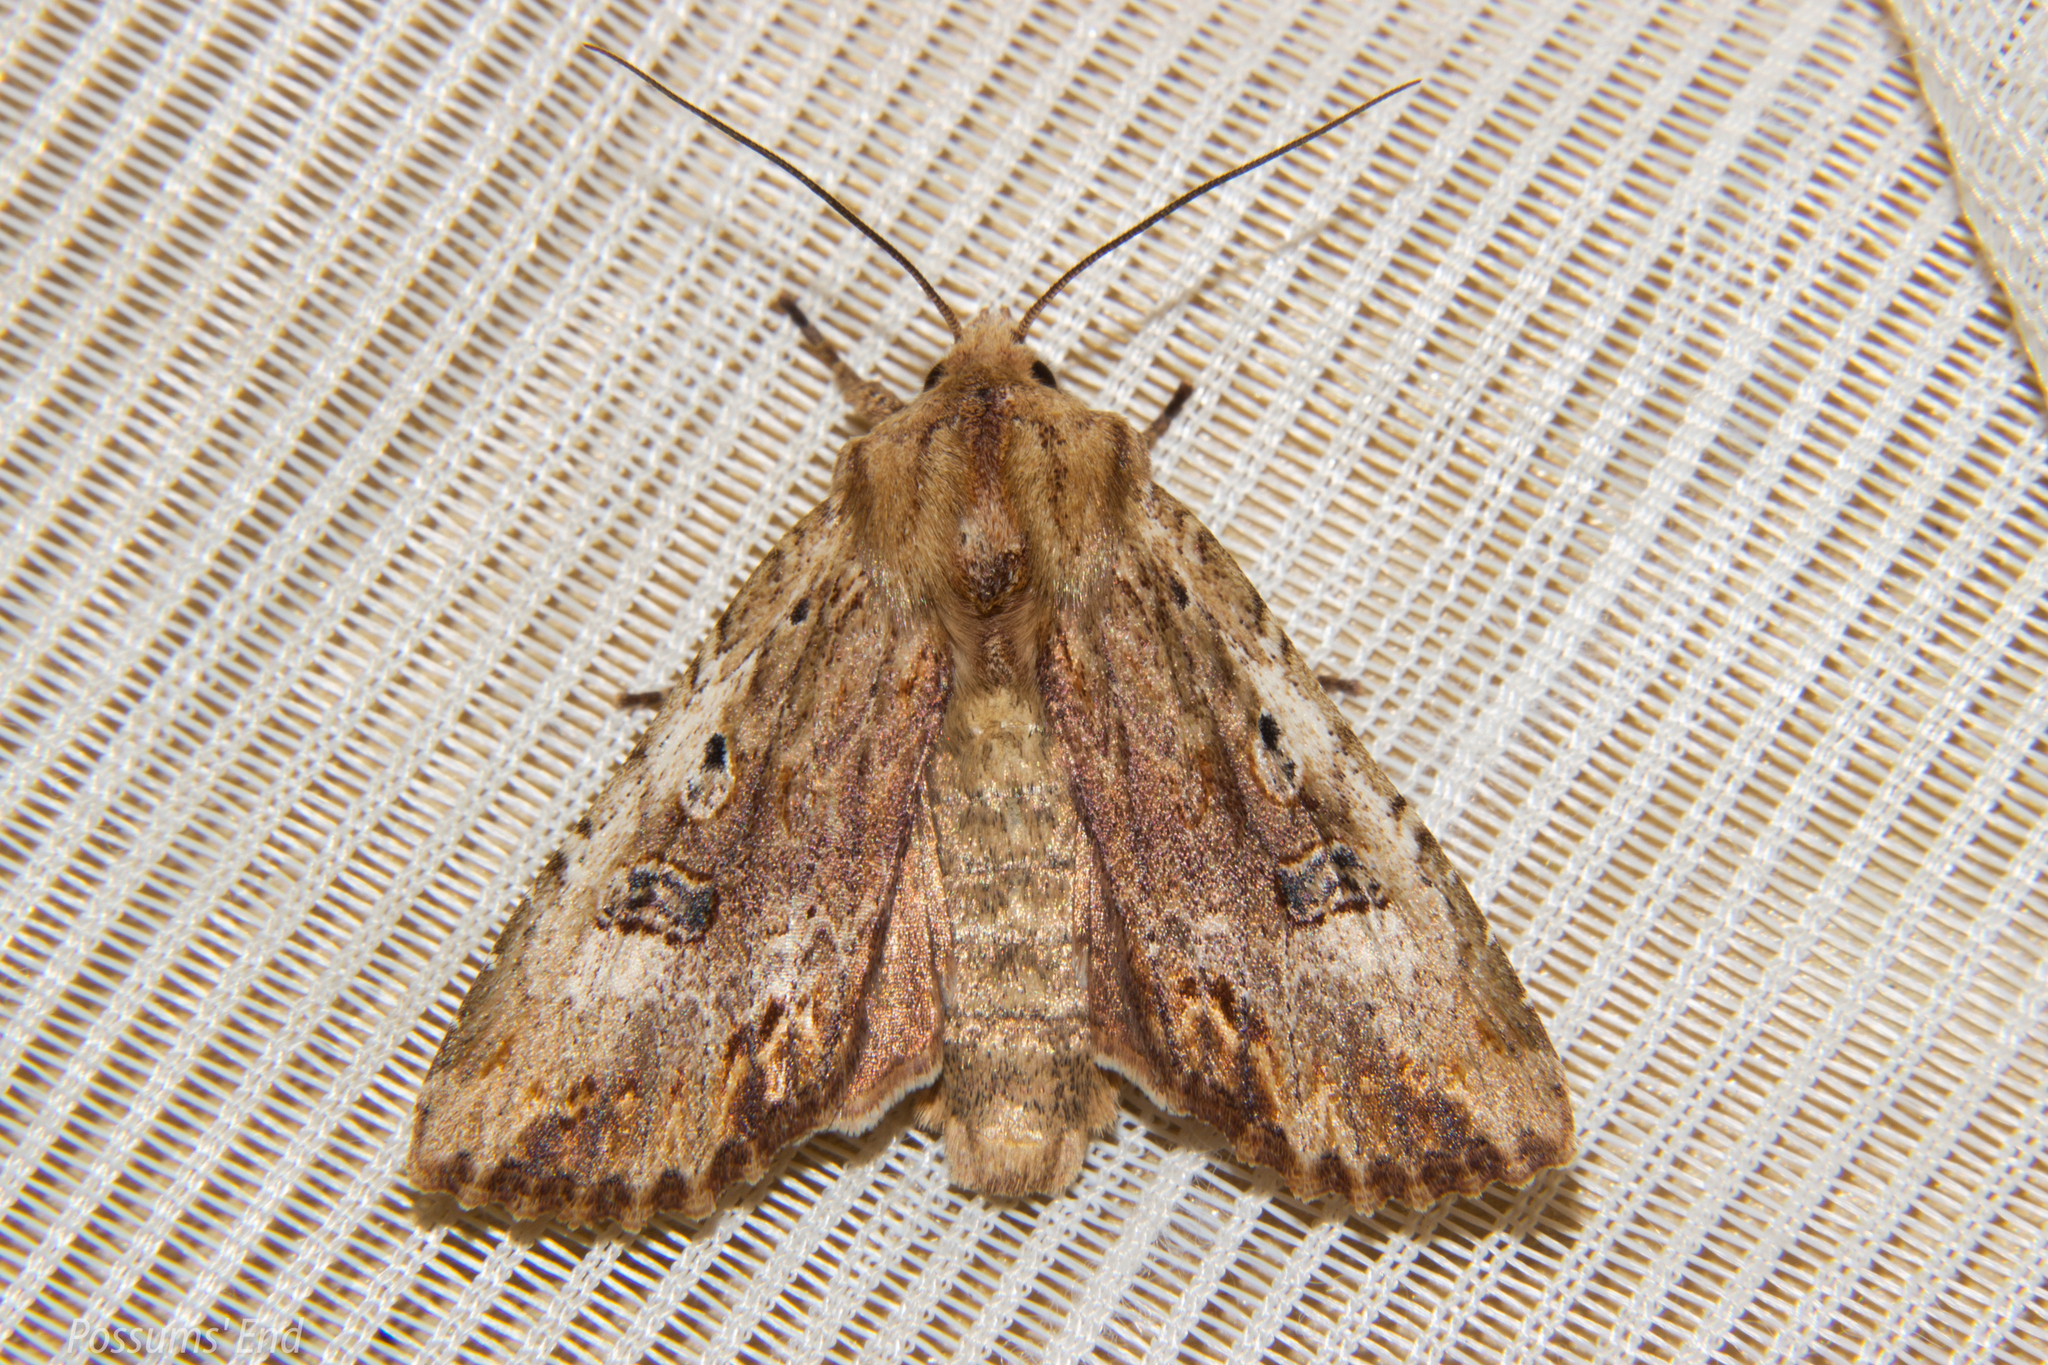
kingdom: Animalia
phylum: Arthropoda
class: Insecta
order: Lepidoptera
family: Noctuidae
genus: Ichneutica
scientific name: Ichneutica
